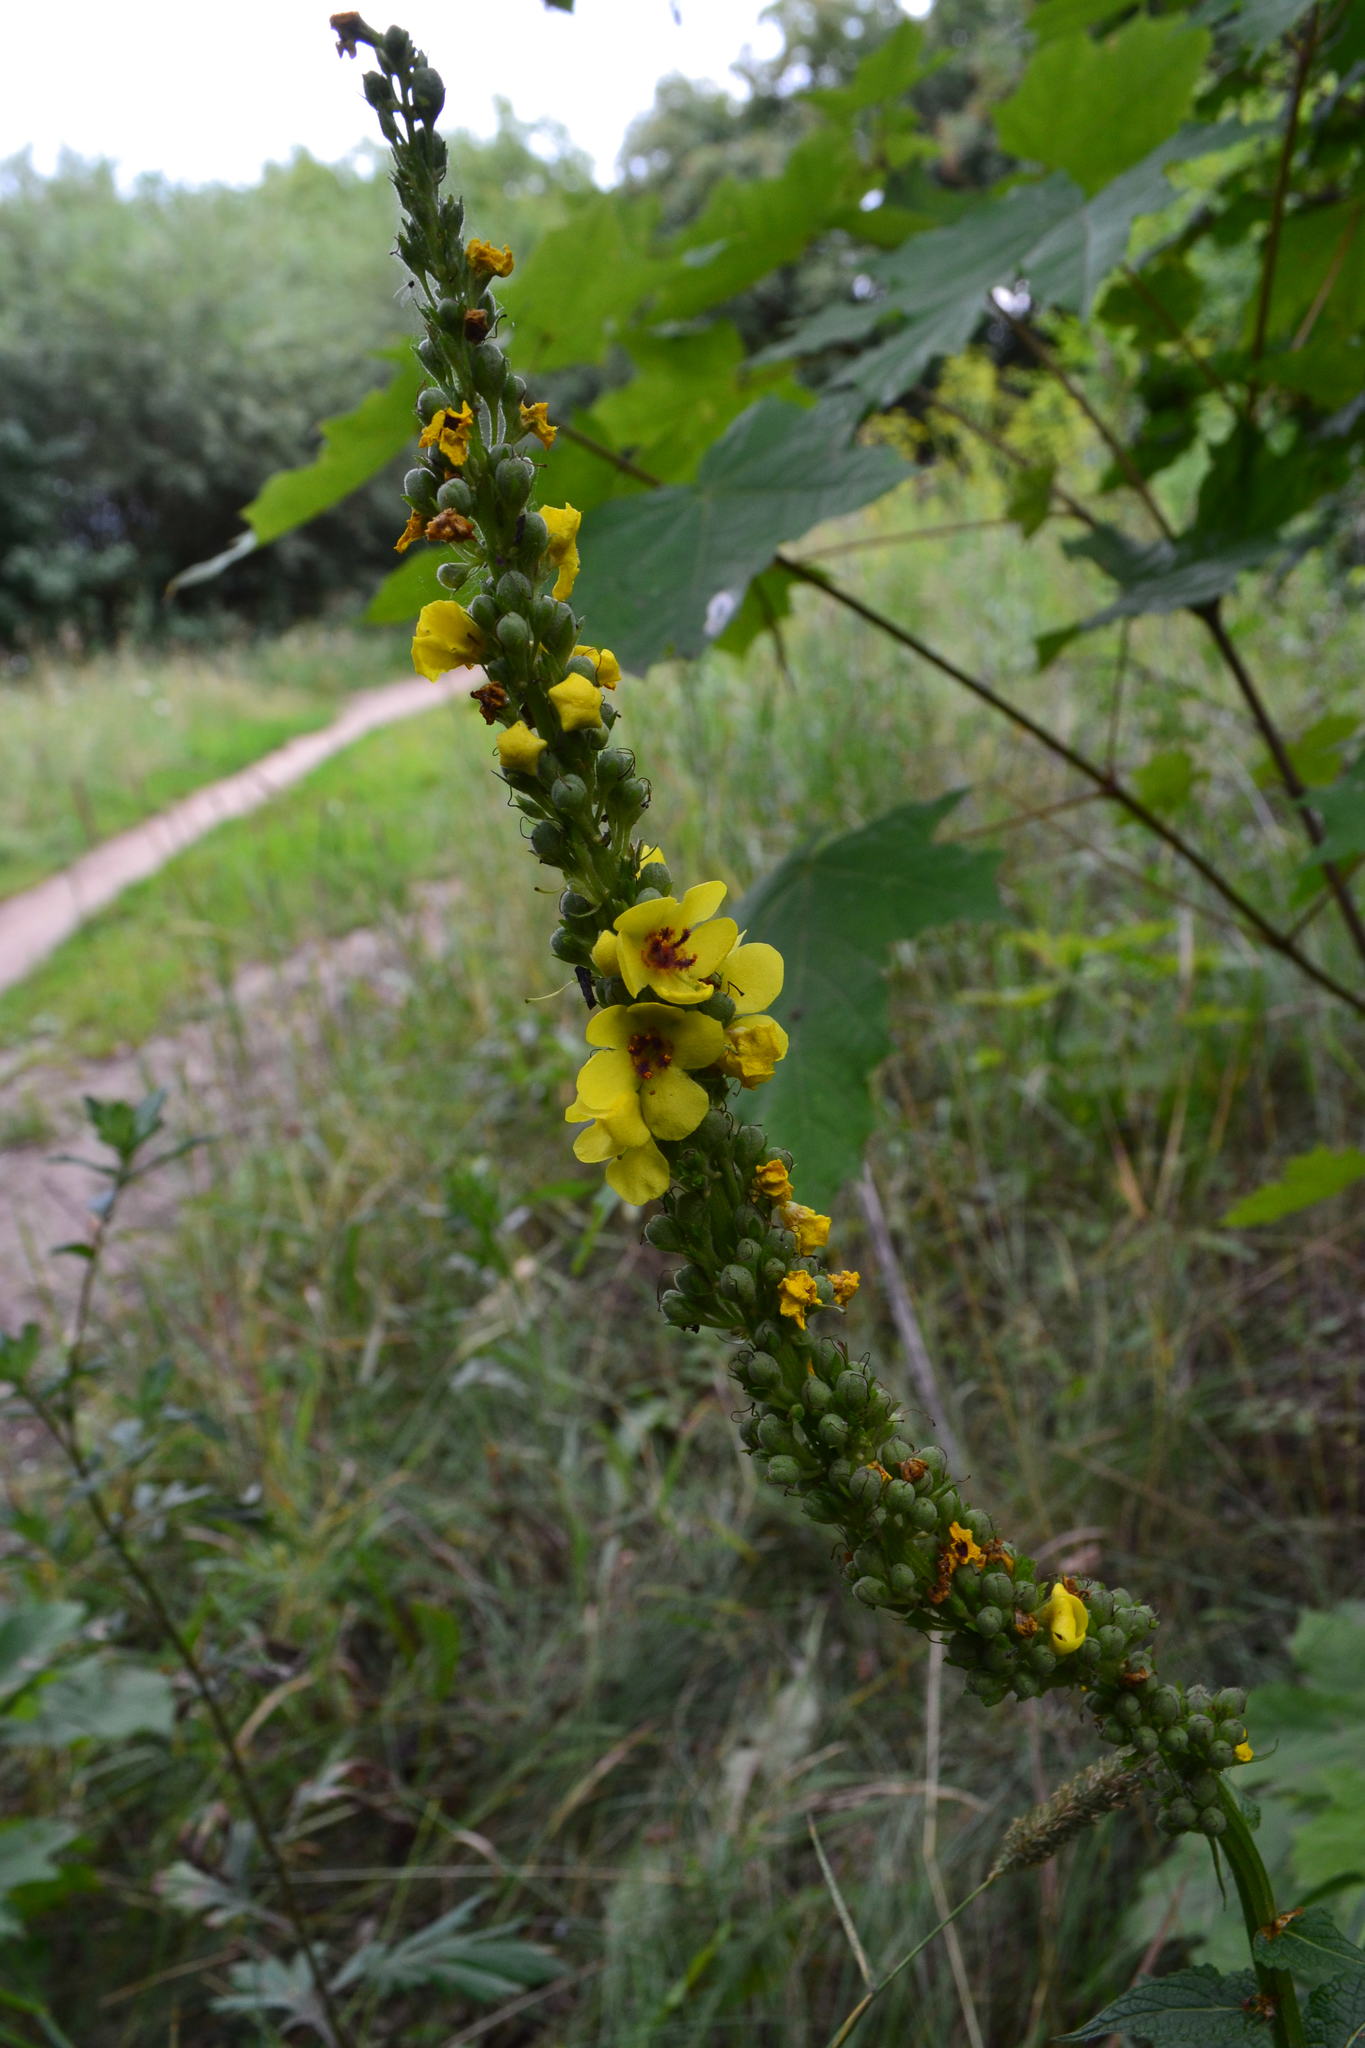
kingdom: Plantae
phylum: Tracheophyta
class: Magnoliopsida
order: Lamiales
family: Scrophulariaceae
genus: Verbascum
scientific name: Verbascum nigrum
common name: Dark mullein
